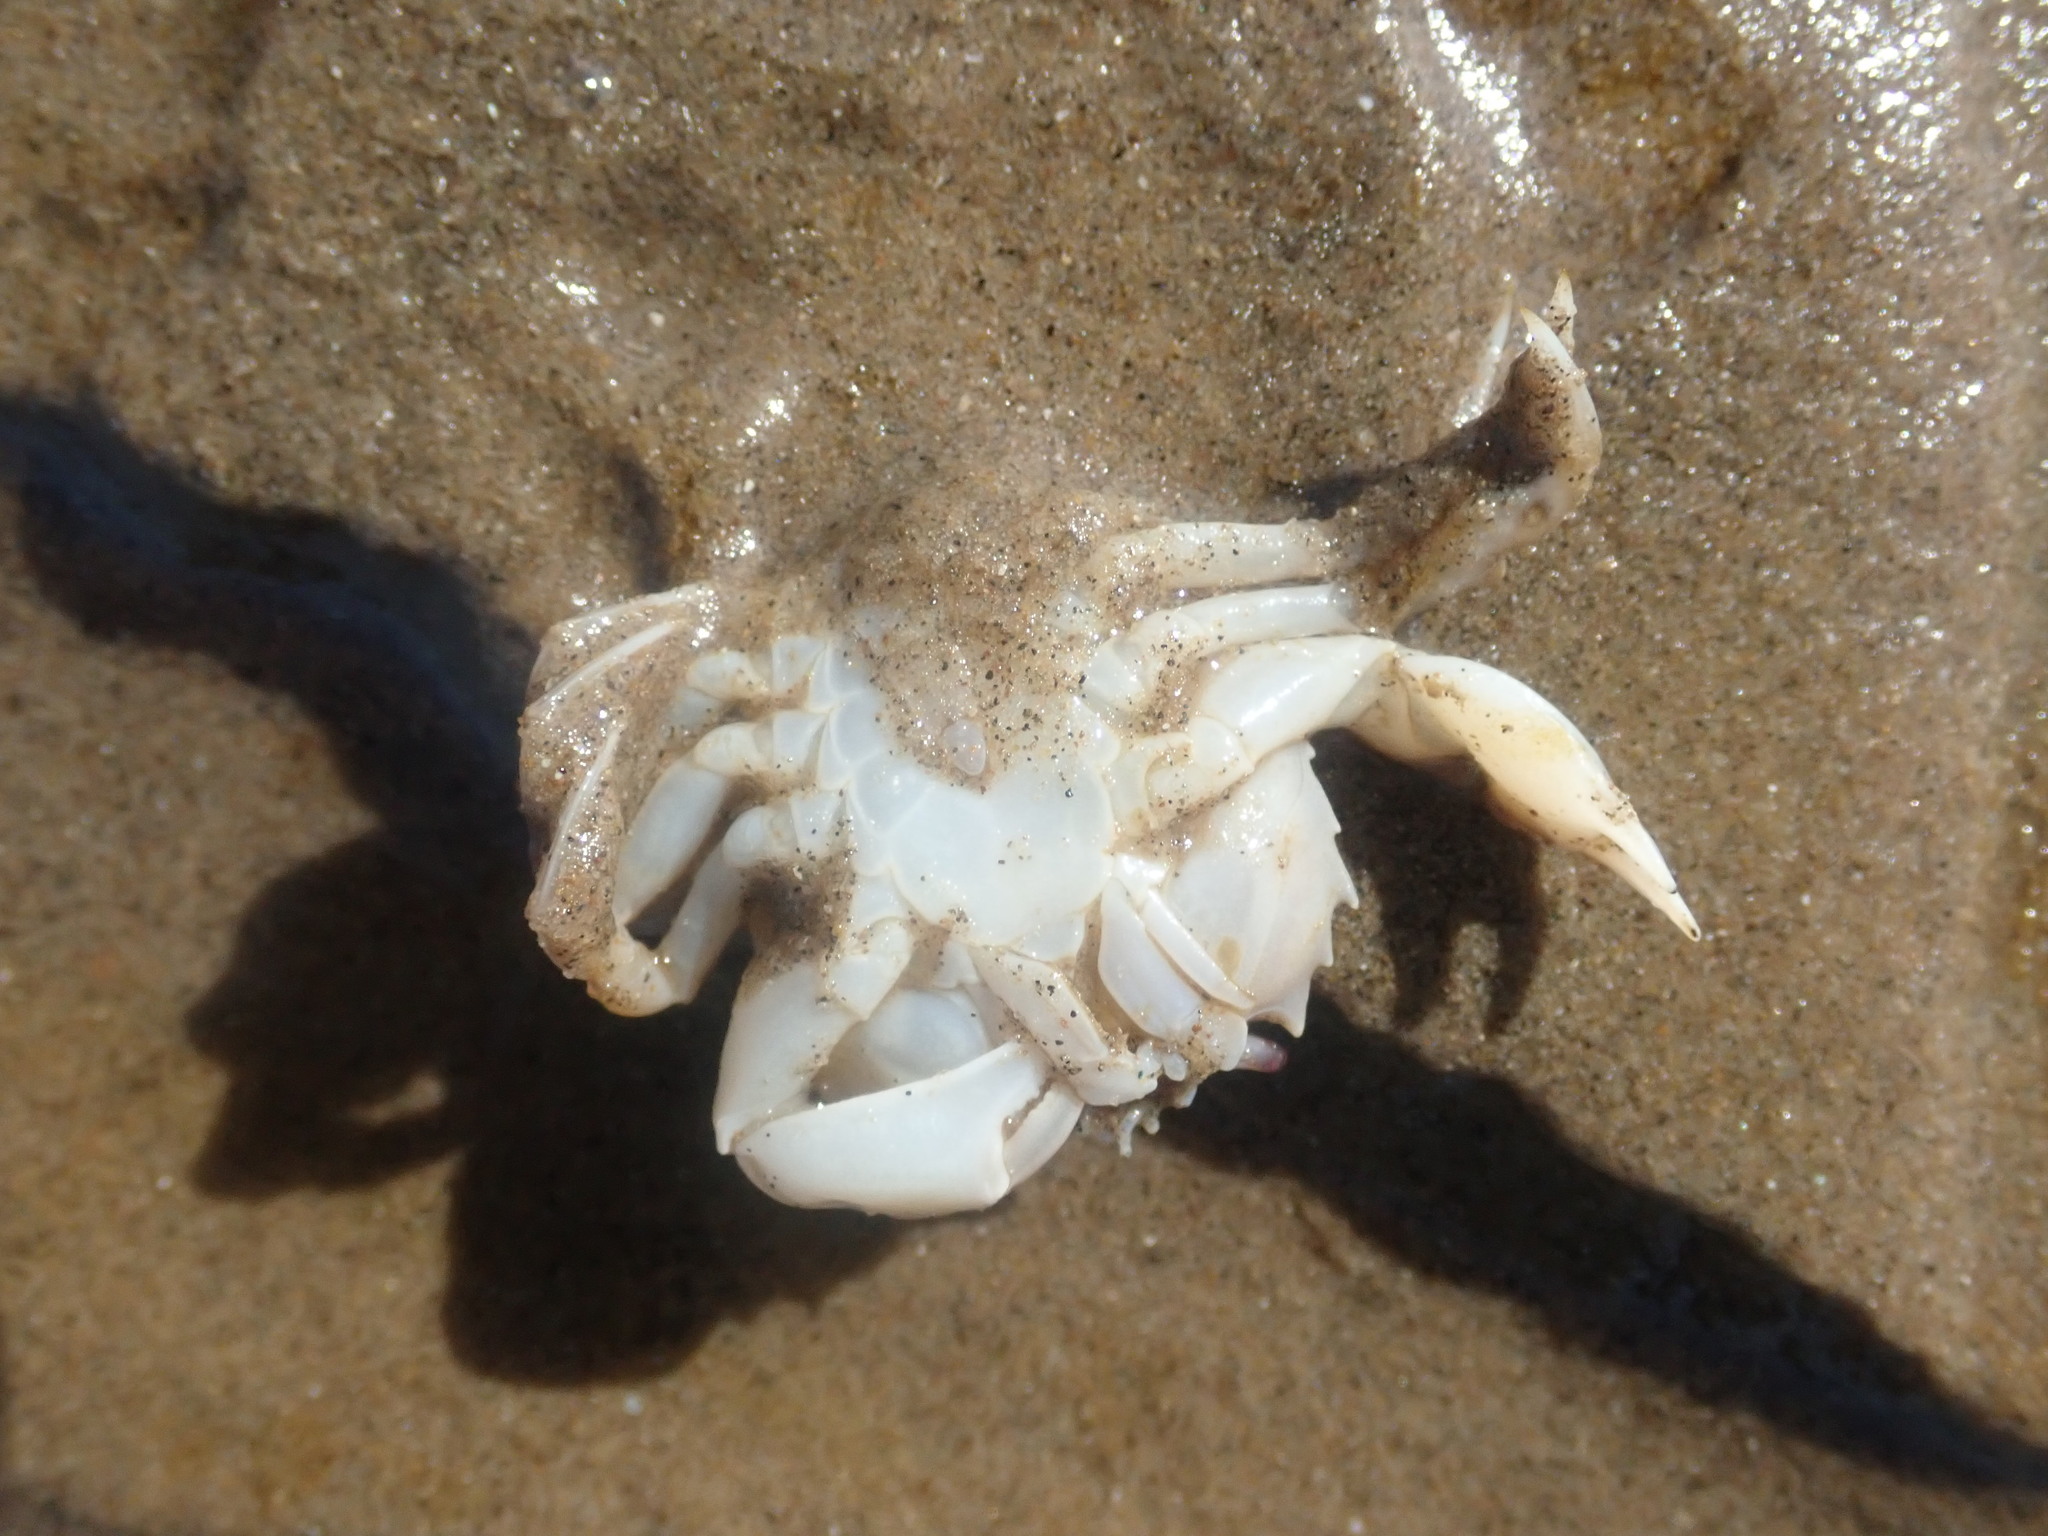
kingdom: Animalia
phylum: Arthropoda
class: Malacostraca
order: Decapoda
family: Carcinidae
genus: Portumnus
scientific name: Portumnus latipes
